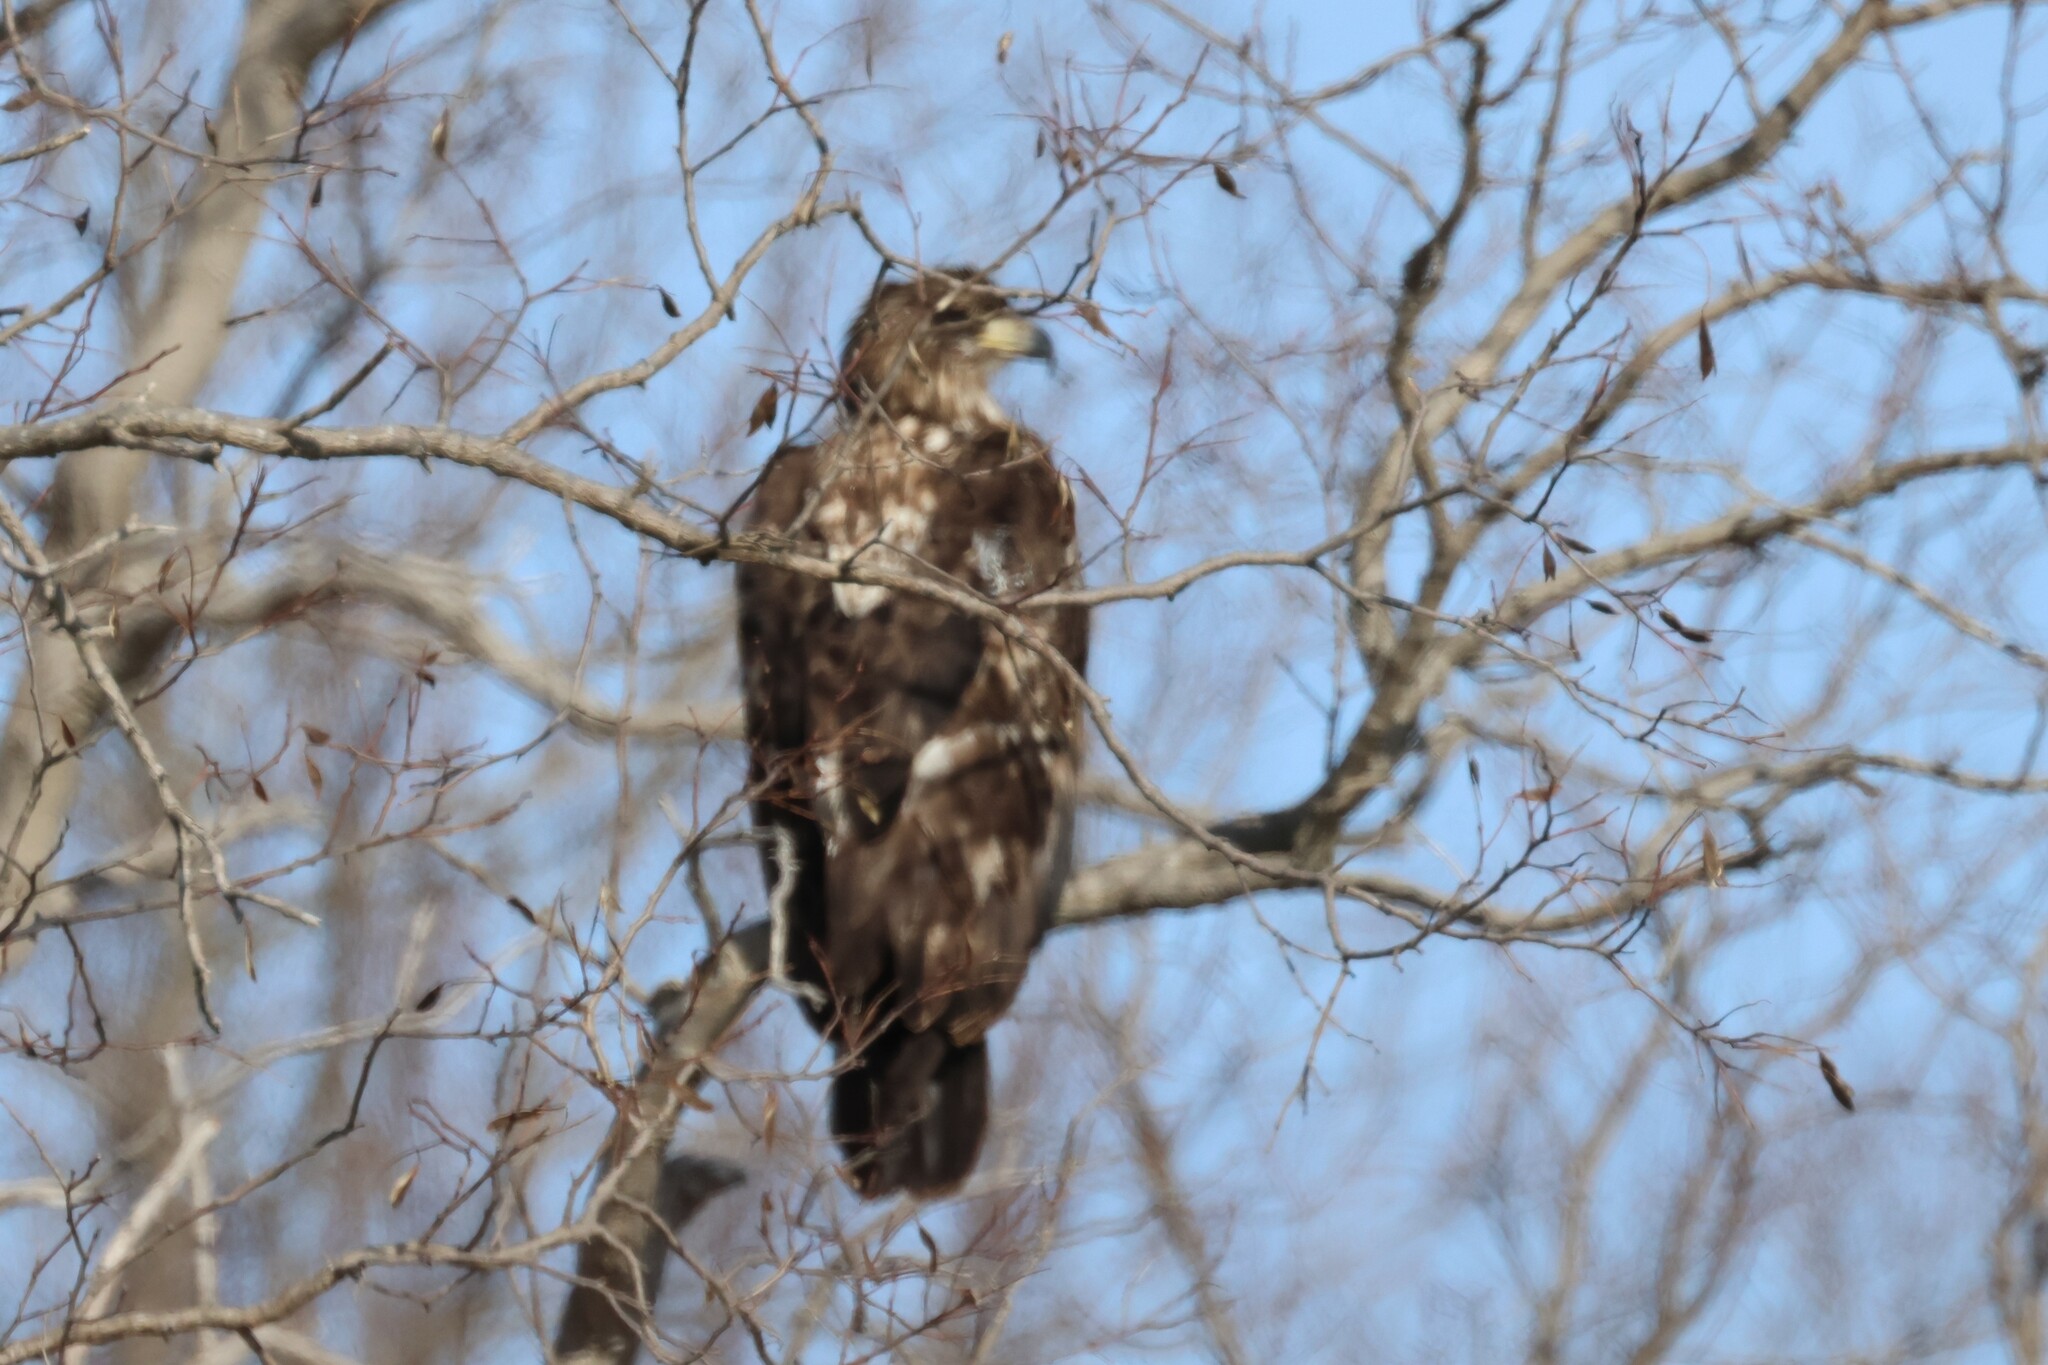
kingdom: Animalia
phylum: Chordata
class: Aves
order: Accipitriformes
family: Accipitridae
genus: Haliaeetus
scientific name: Haliaeetus leucocephalus
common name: Bald eagle
